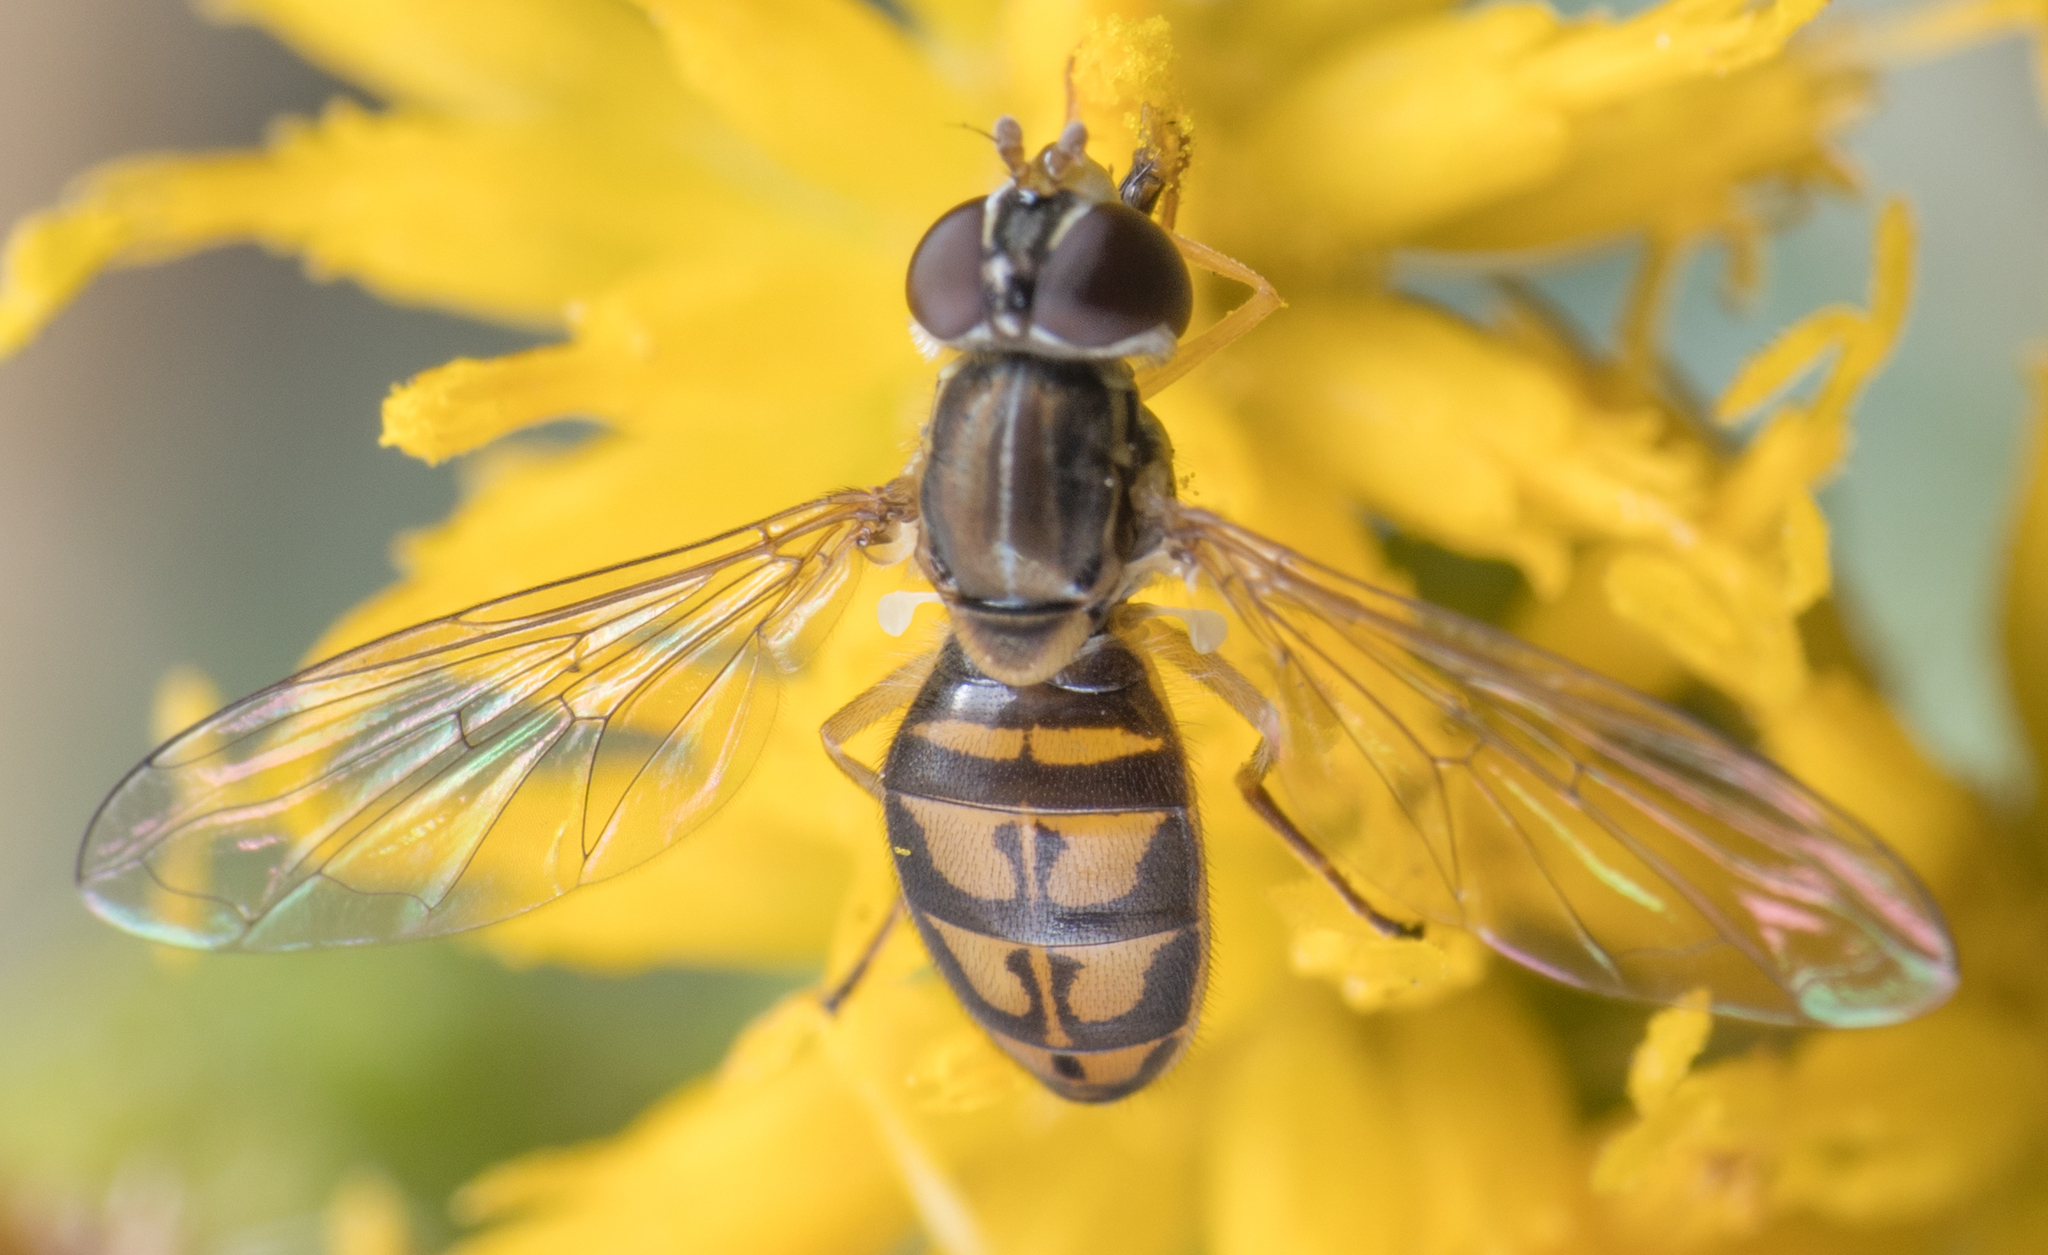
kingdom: Animalia
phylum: Arthropoda
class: Insecta
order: Diptera
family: Syrphidae
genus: Toxomerus
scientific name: Toxomerus marginatus
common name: Syrphid fly
